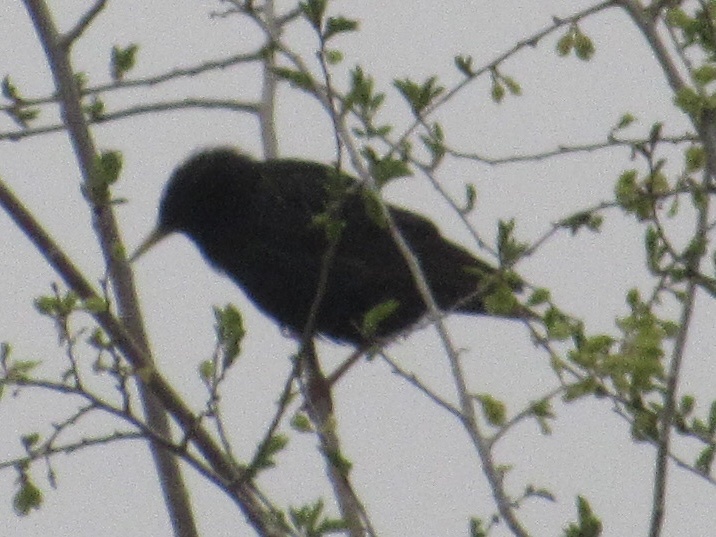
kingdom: Animalia
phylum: Chordata
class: Aves
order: Passeriformes
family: Sturnidae
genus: Sturnus
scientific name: Sturnus vulgaris
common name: Common starling
